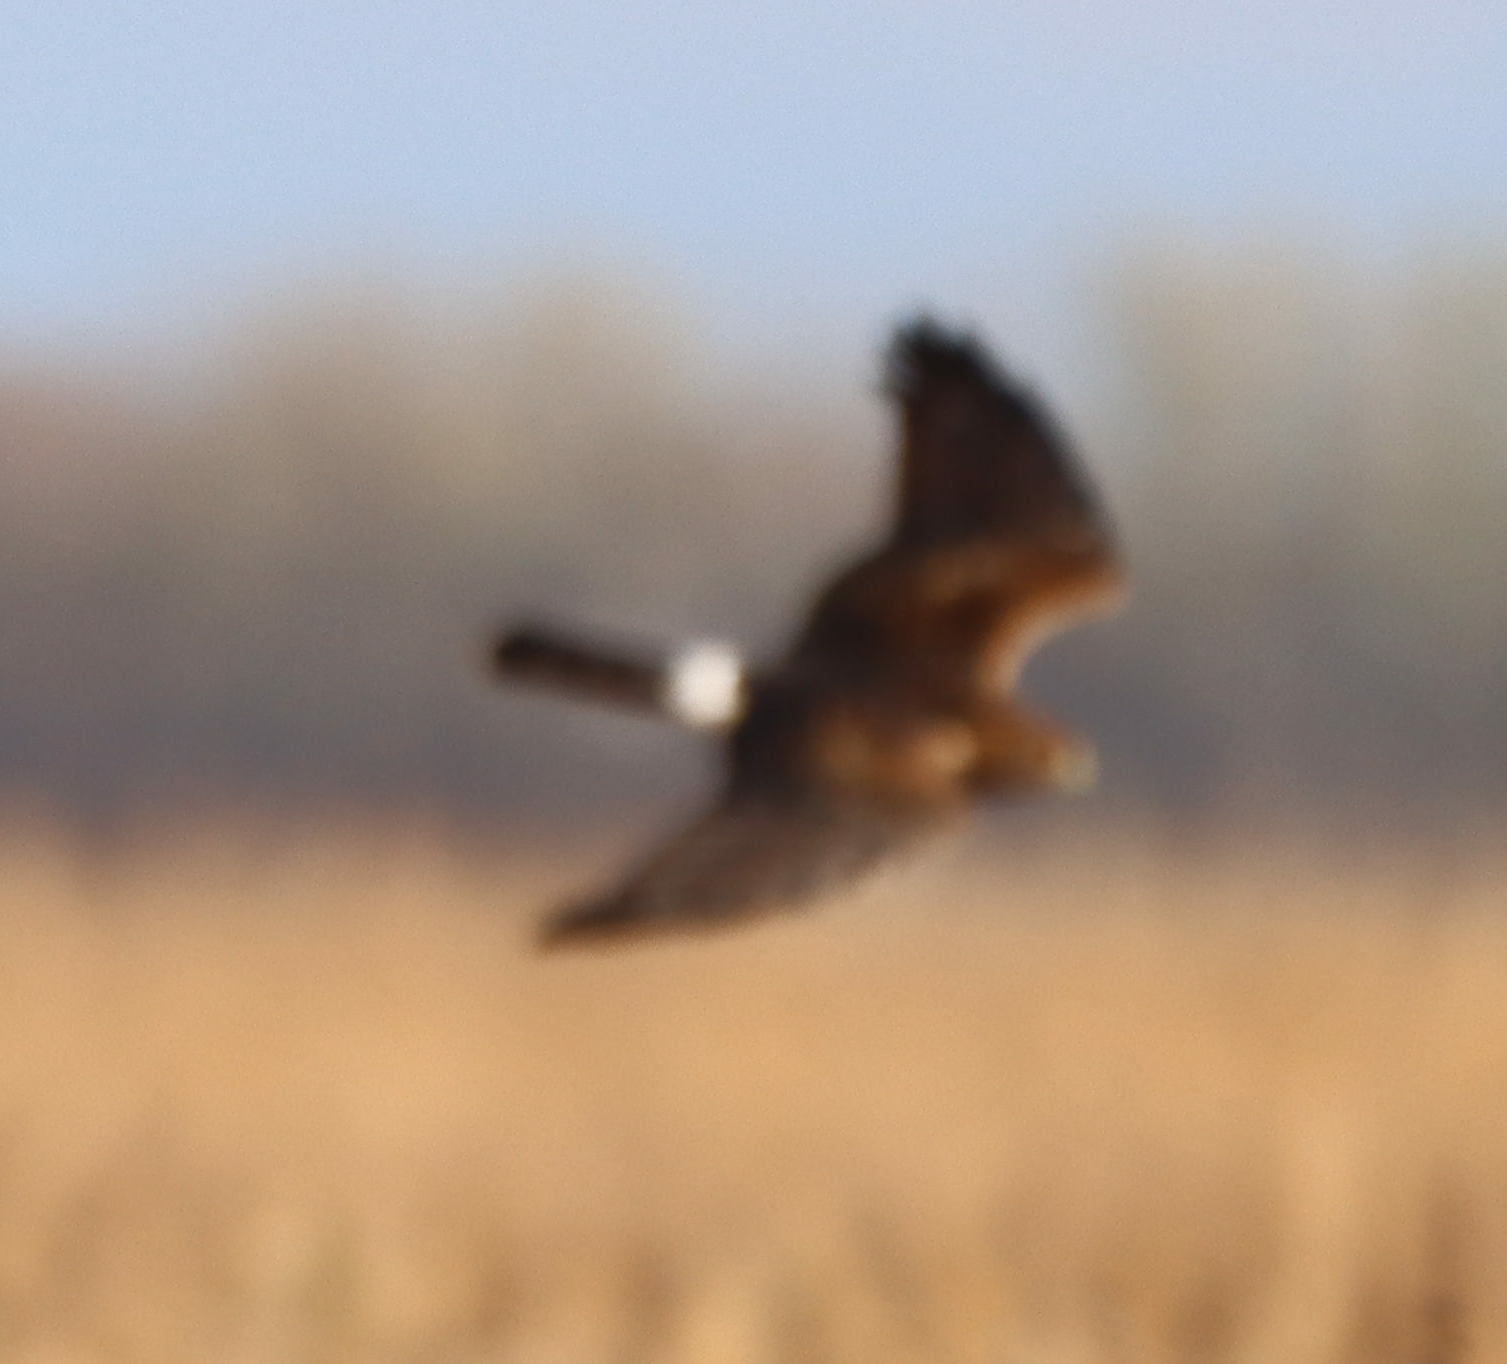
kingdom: Animalia
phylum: Chordata
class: Aves
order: Accipitriformes
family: Accipitridae
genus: Circus
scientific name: Circus cyaneus
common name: Hen harrier
